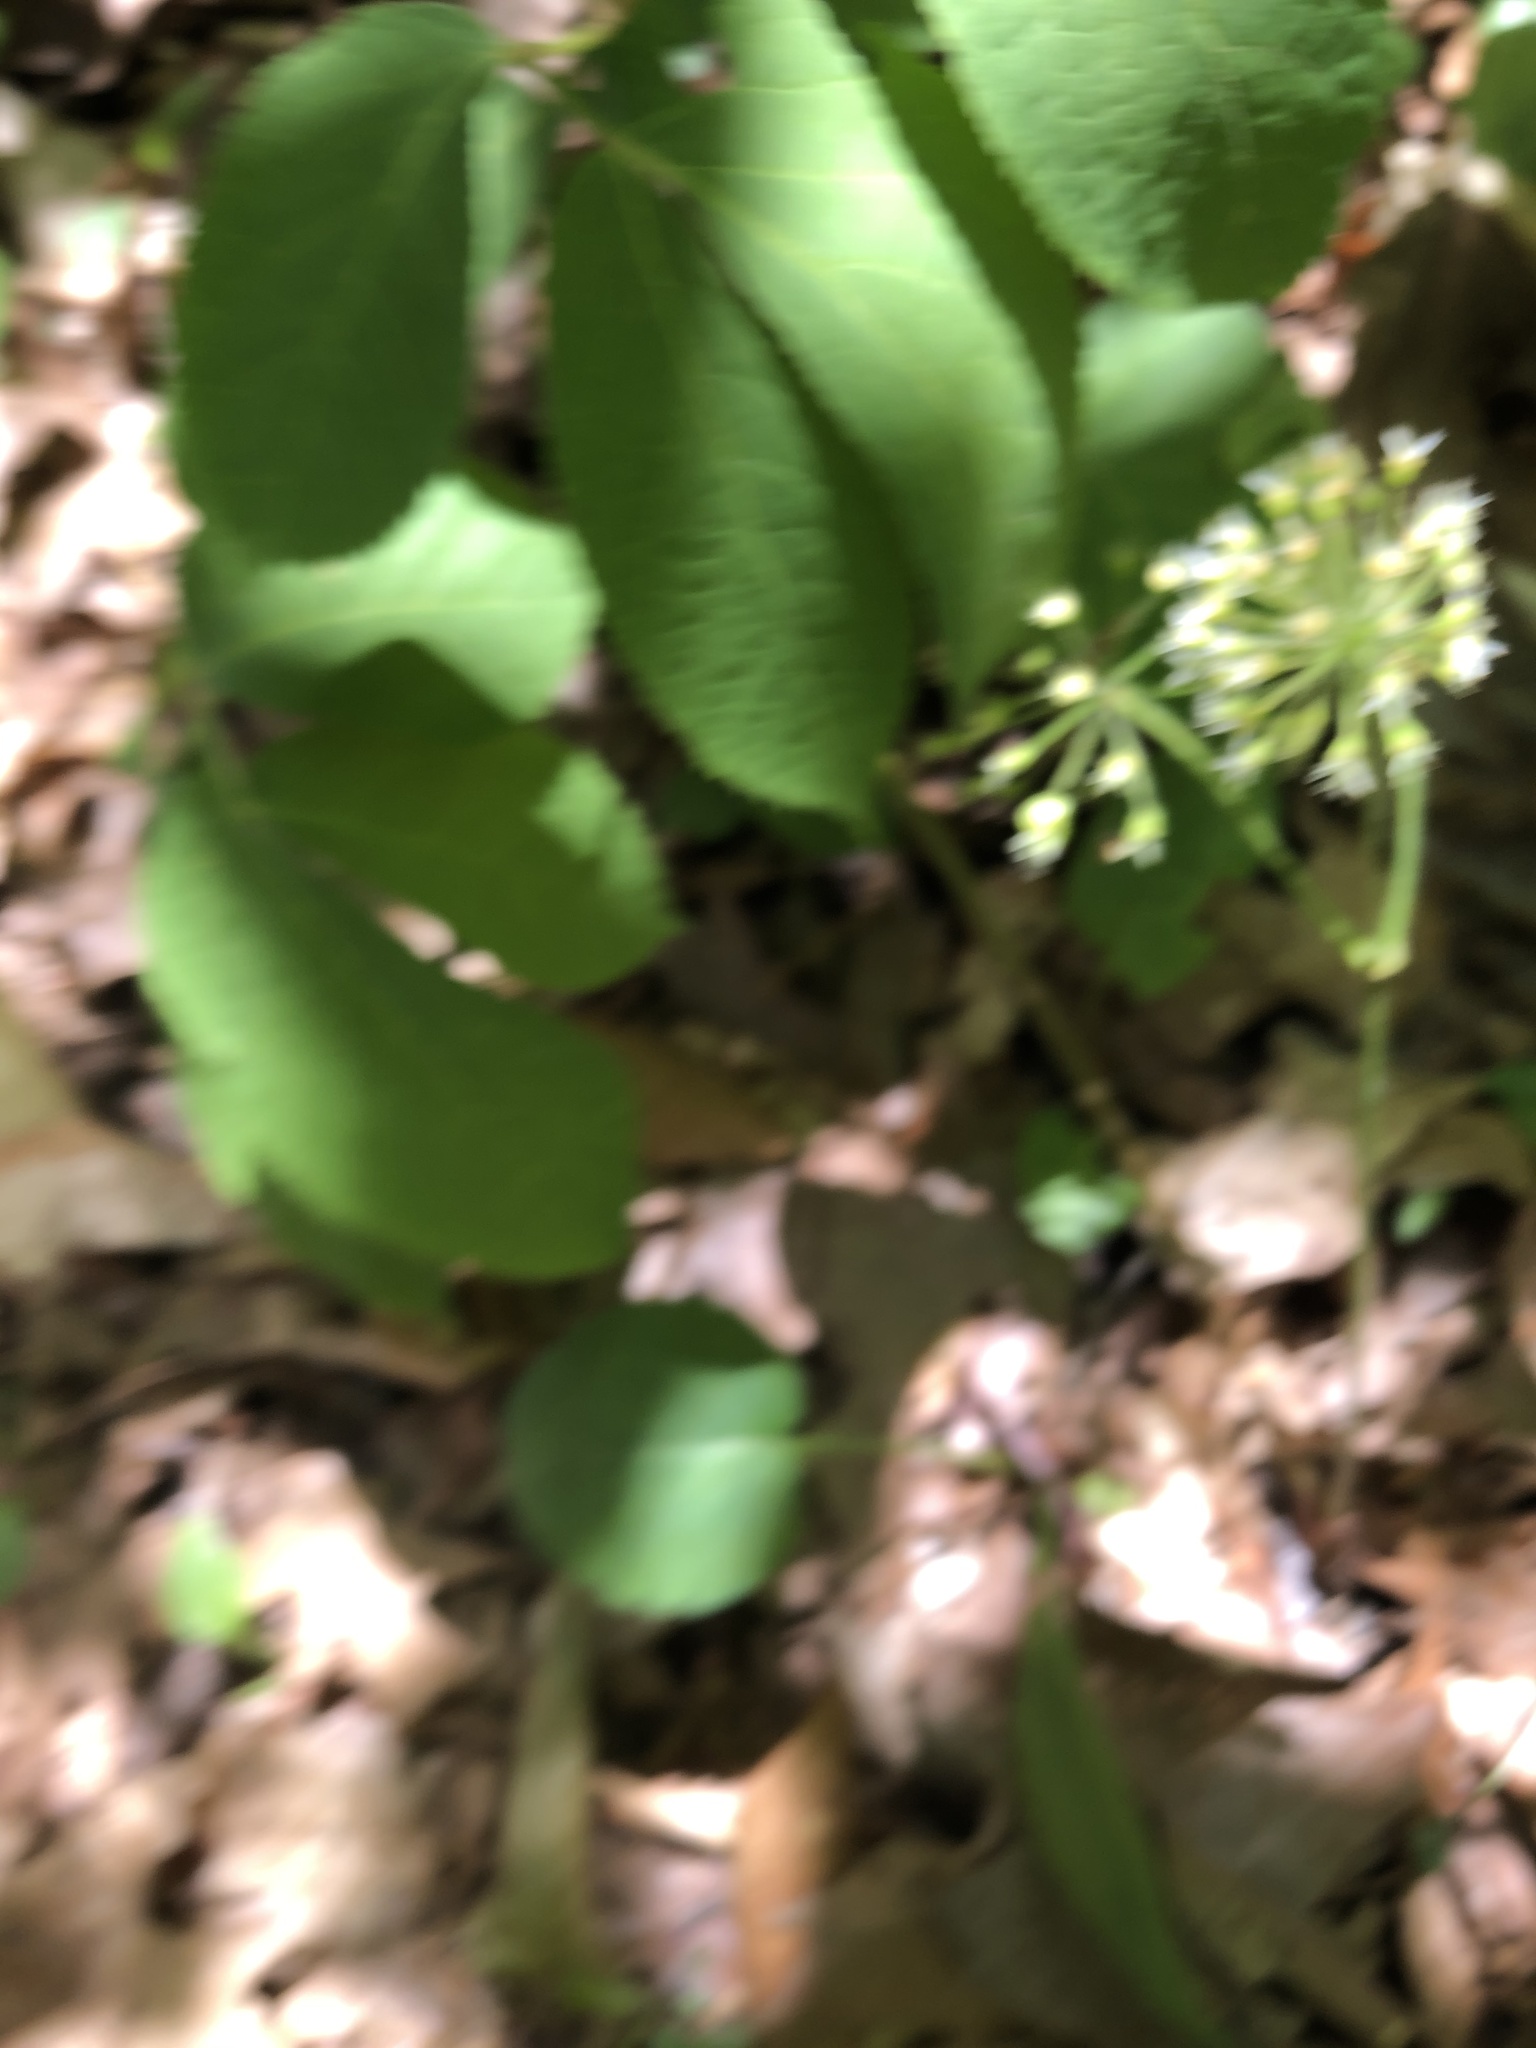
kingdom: Plantae
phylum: Tracheophyta
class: Magnoliopsida
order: Apiales
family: Araliaceae
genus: Aralia
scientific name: Aralia nudicaulis
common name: Wild sarsaparilla
